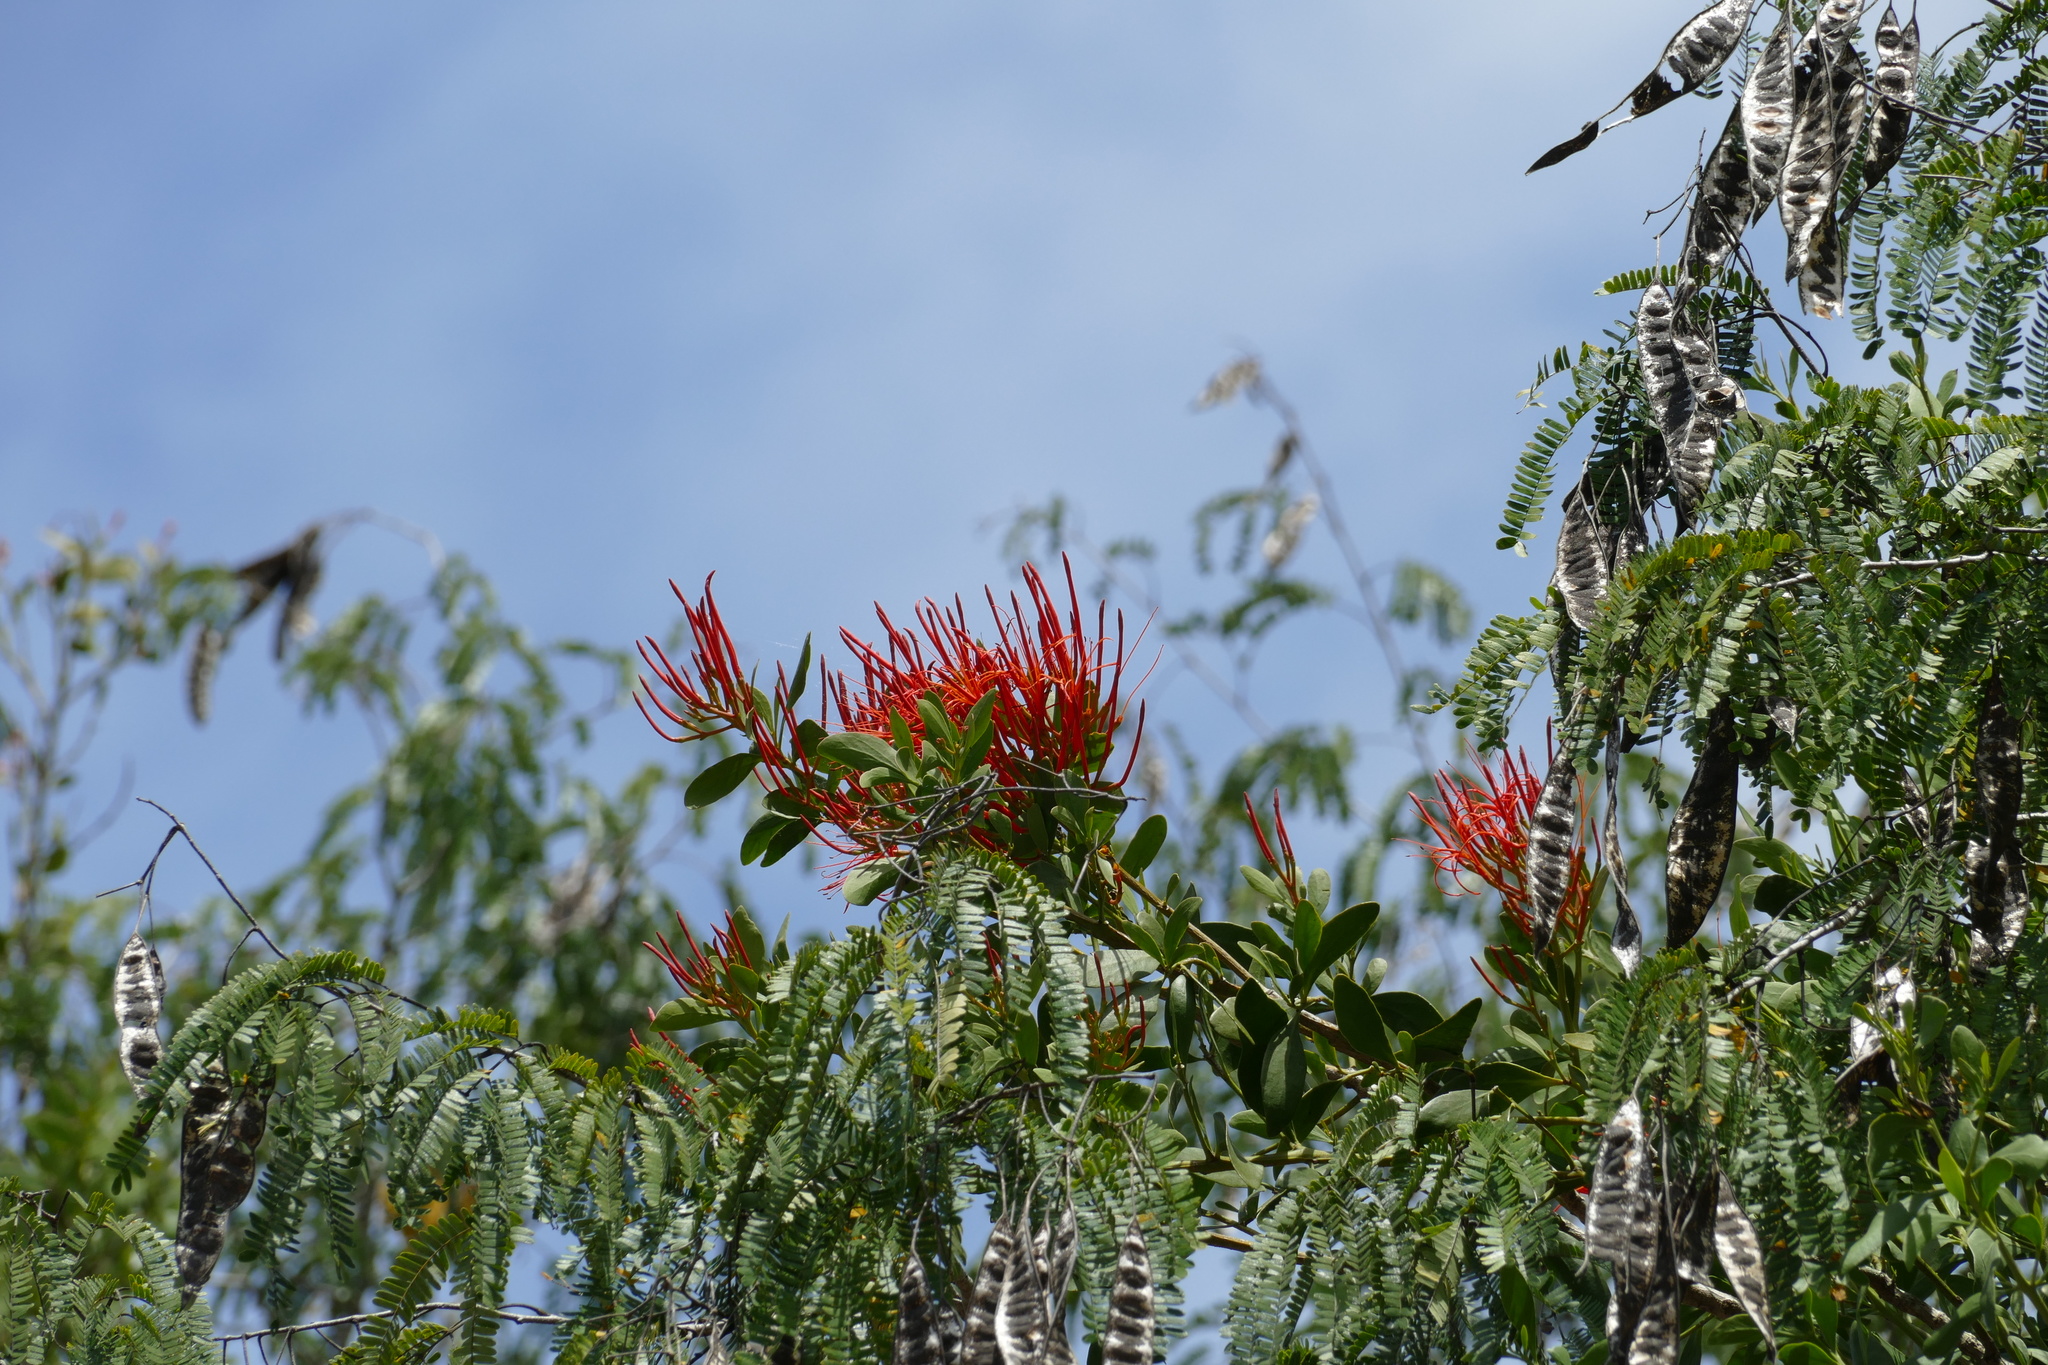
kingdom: Plantae
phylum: Tracheophyta
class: Magnoliopsida
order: Santalales
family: Loranthaceae
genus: Psittacanthus
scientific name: Psittacanthus mayanus
